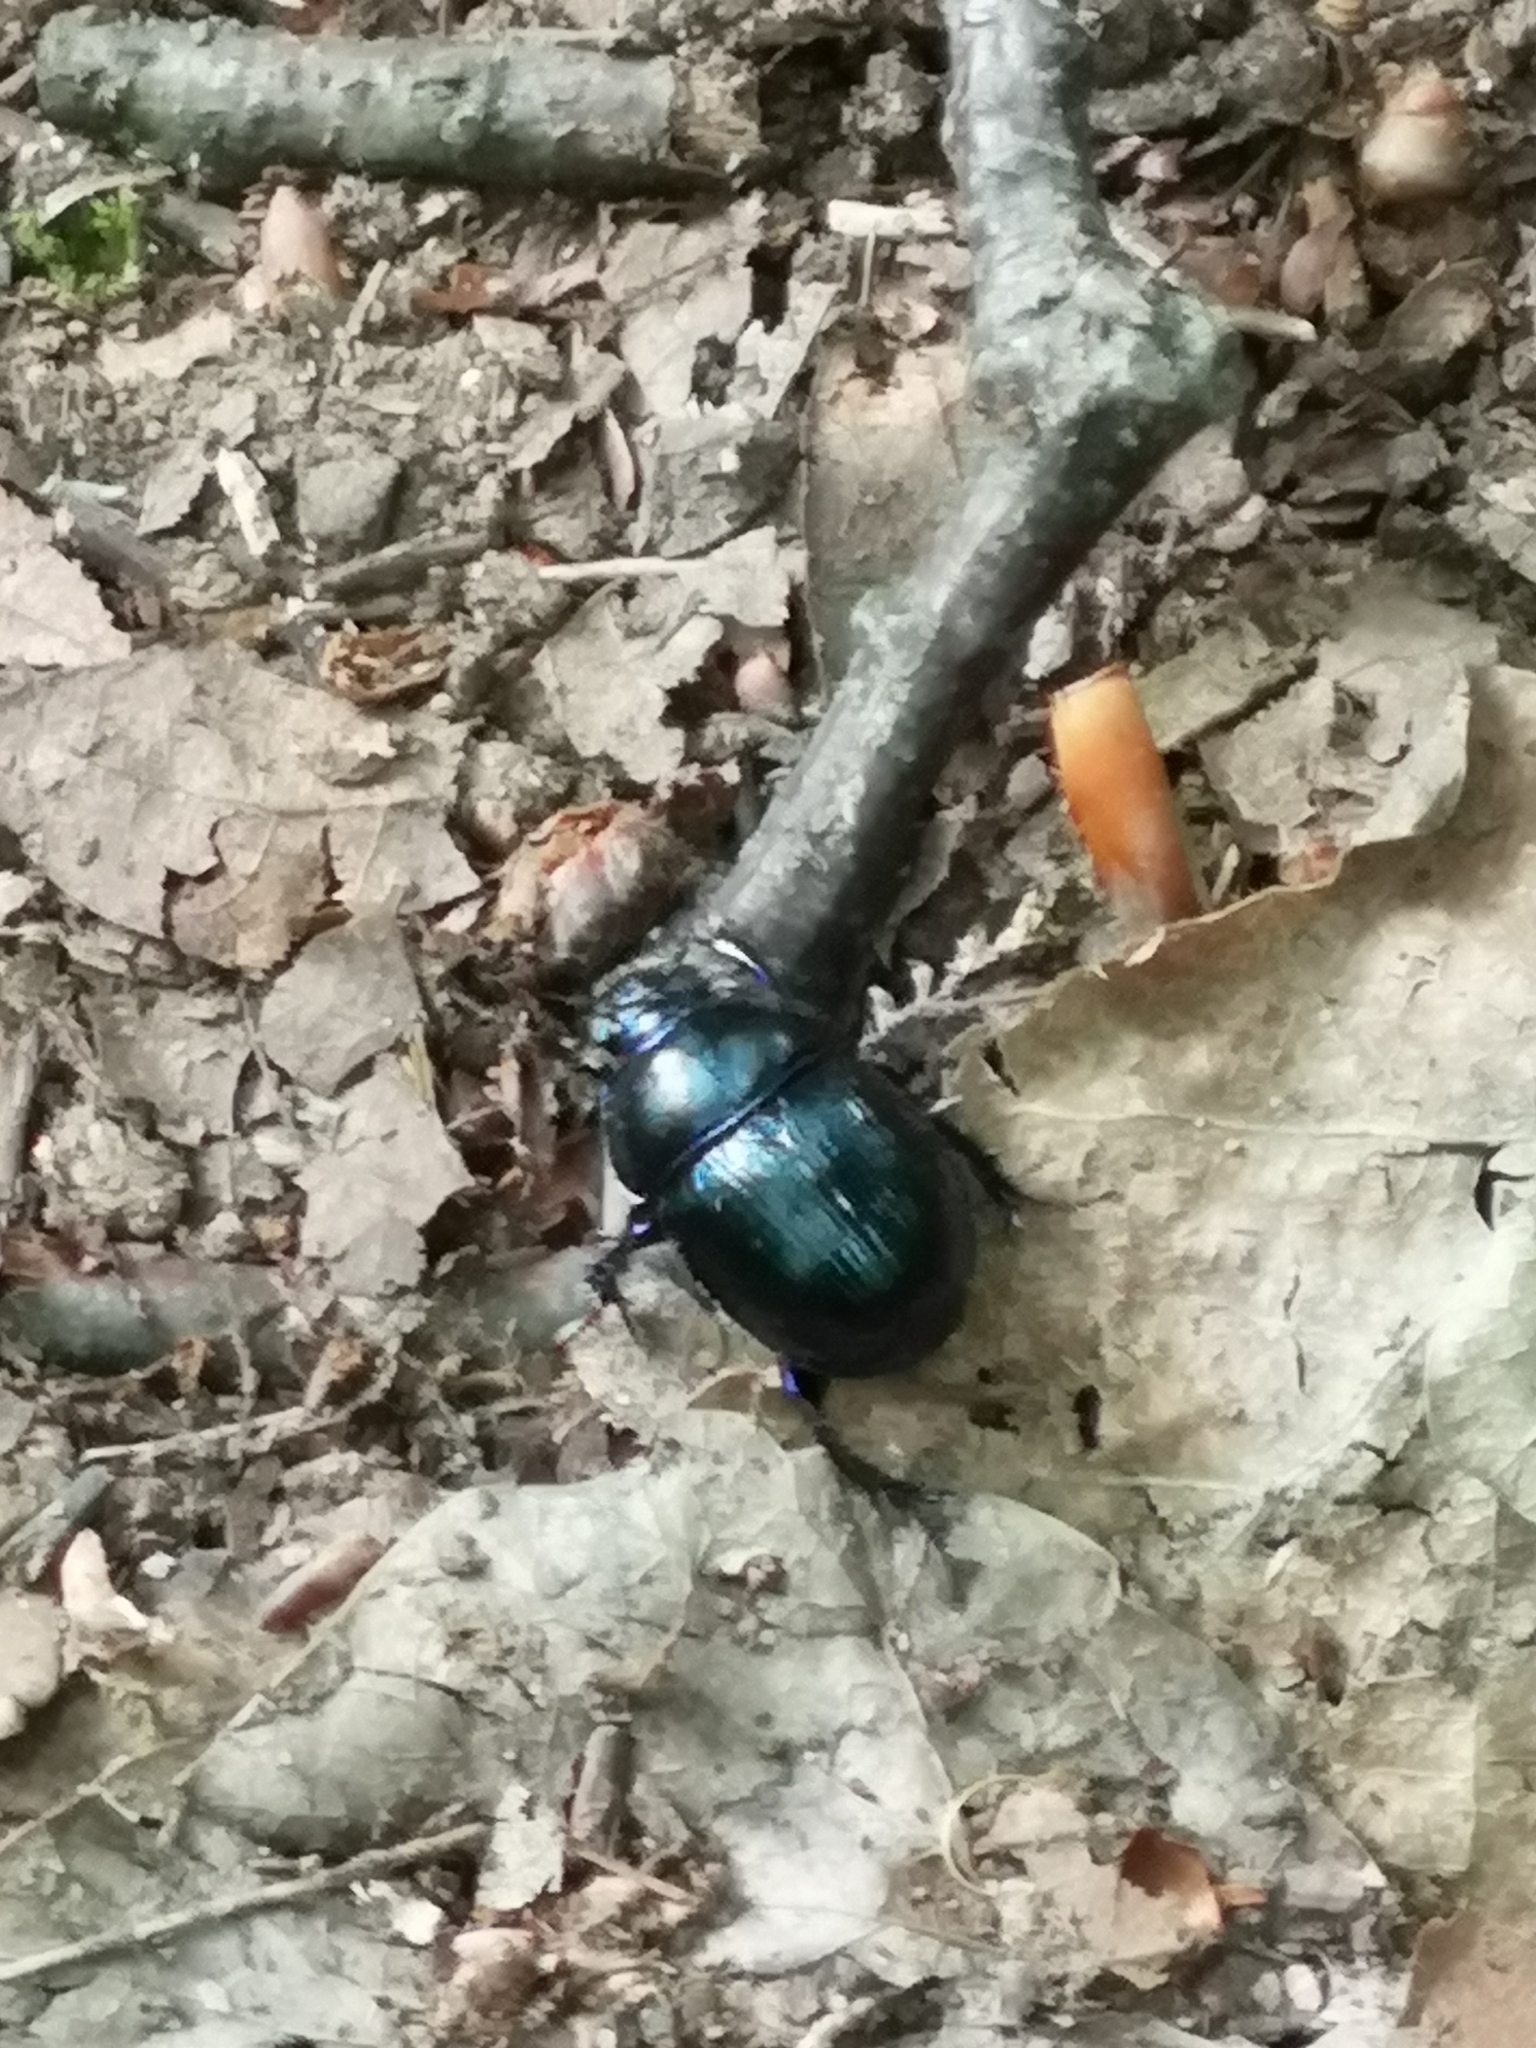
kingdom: Animalia
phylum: Arthropoda
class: Insecta
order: Coleoptera
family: Geotrupidae
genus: Anoplotrupes
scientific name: Anoplotrupes stercorosus
